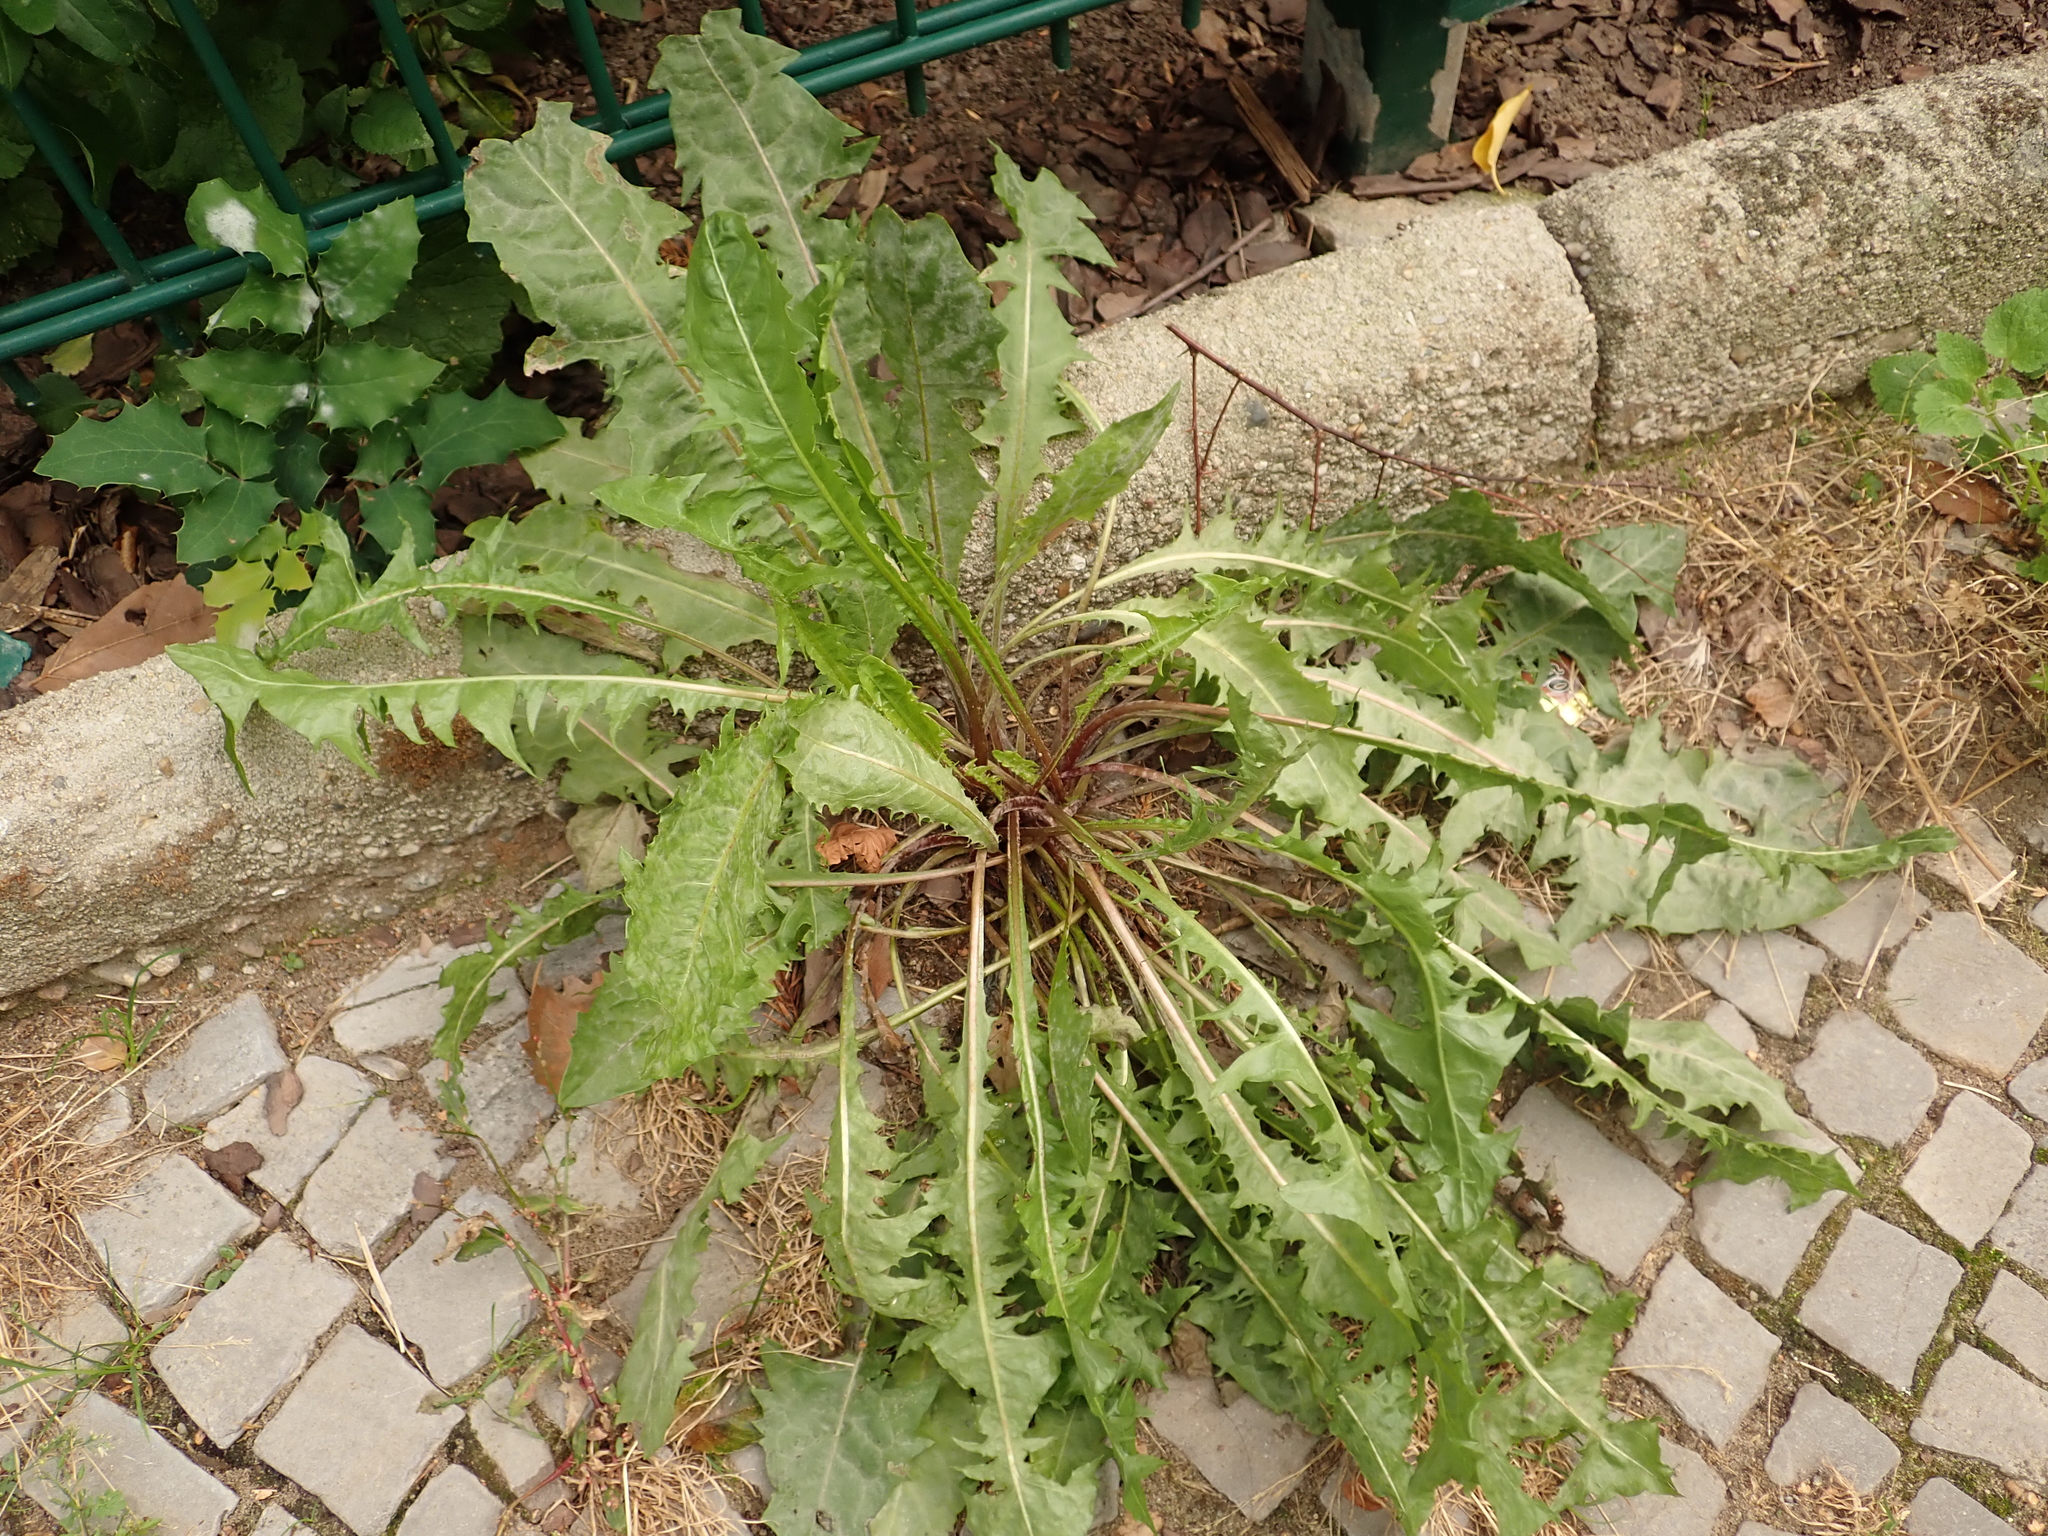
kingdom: Plantae
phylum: Tracheophyta
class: Magnoliopsida
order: Asterales
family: Asteraceae
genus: Taraxacum
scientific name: Taraxacum officinale
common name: Common dandelion
